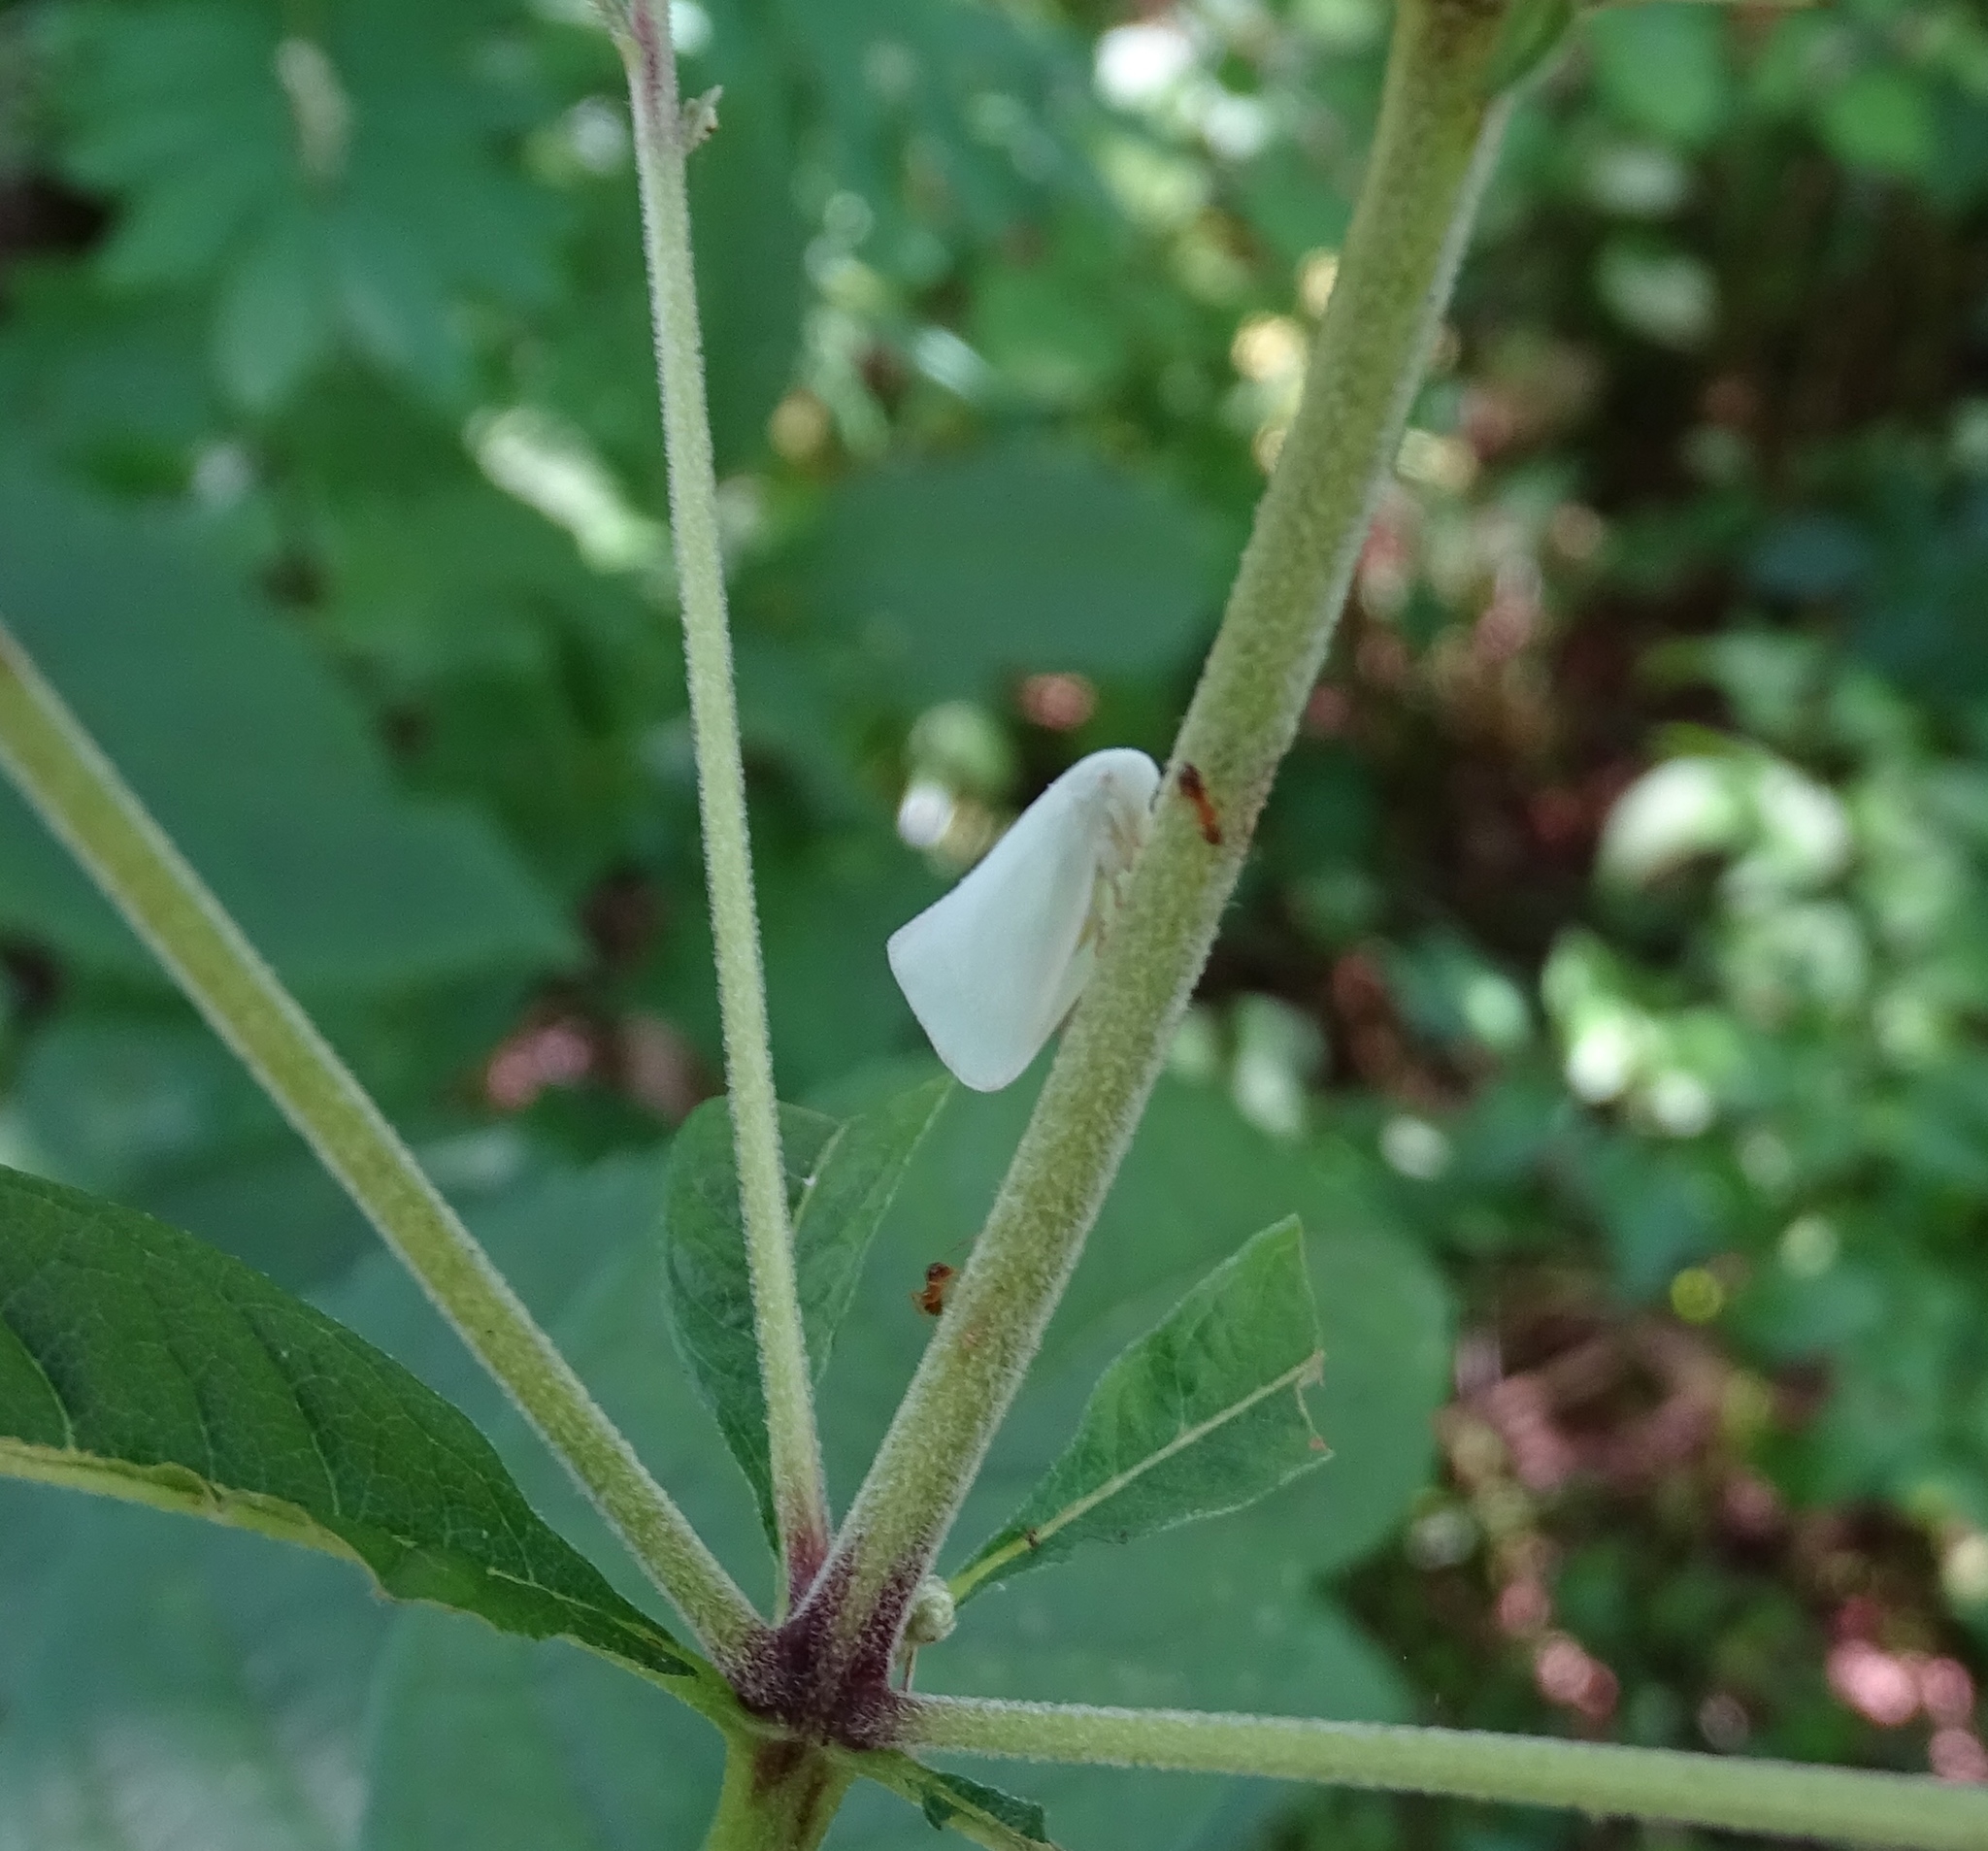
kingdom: Animalia
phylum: Arthropoda
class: Insecta
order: Hemiptera
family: Flatidae
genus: Flatormenis
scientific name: Flatormenis proxima
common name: Northern flatid planthopper
